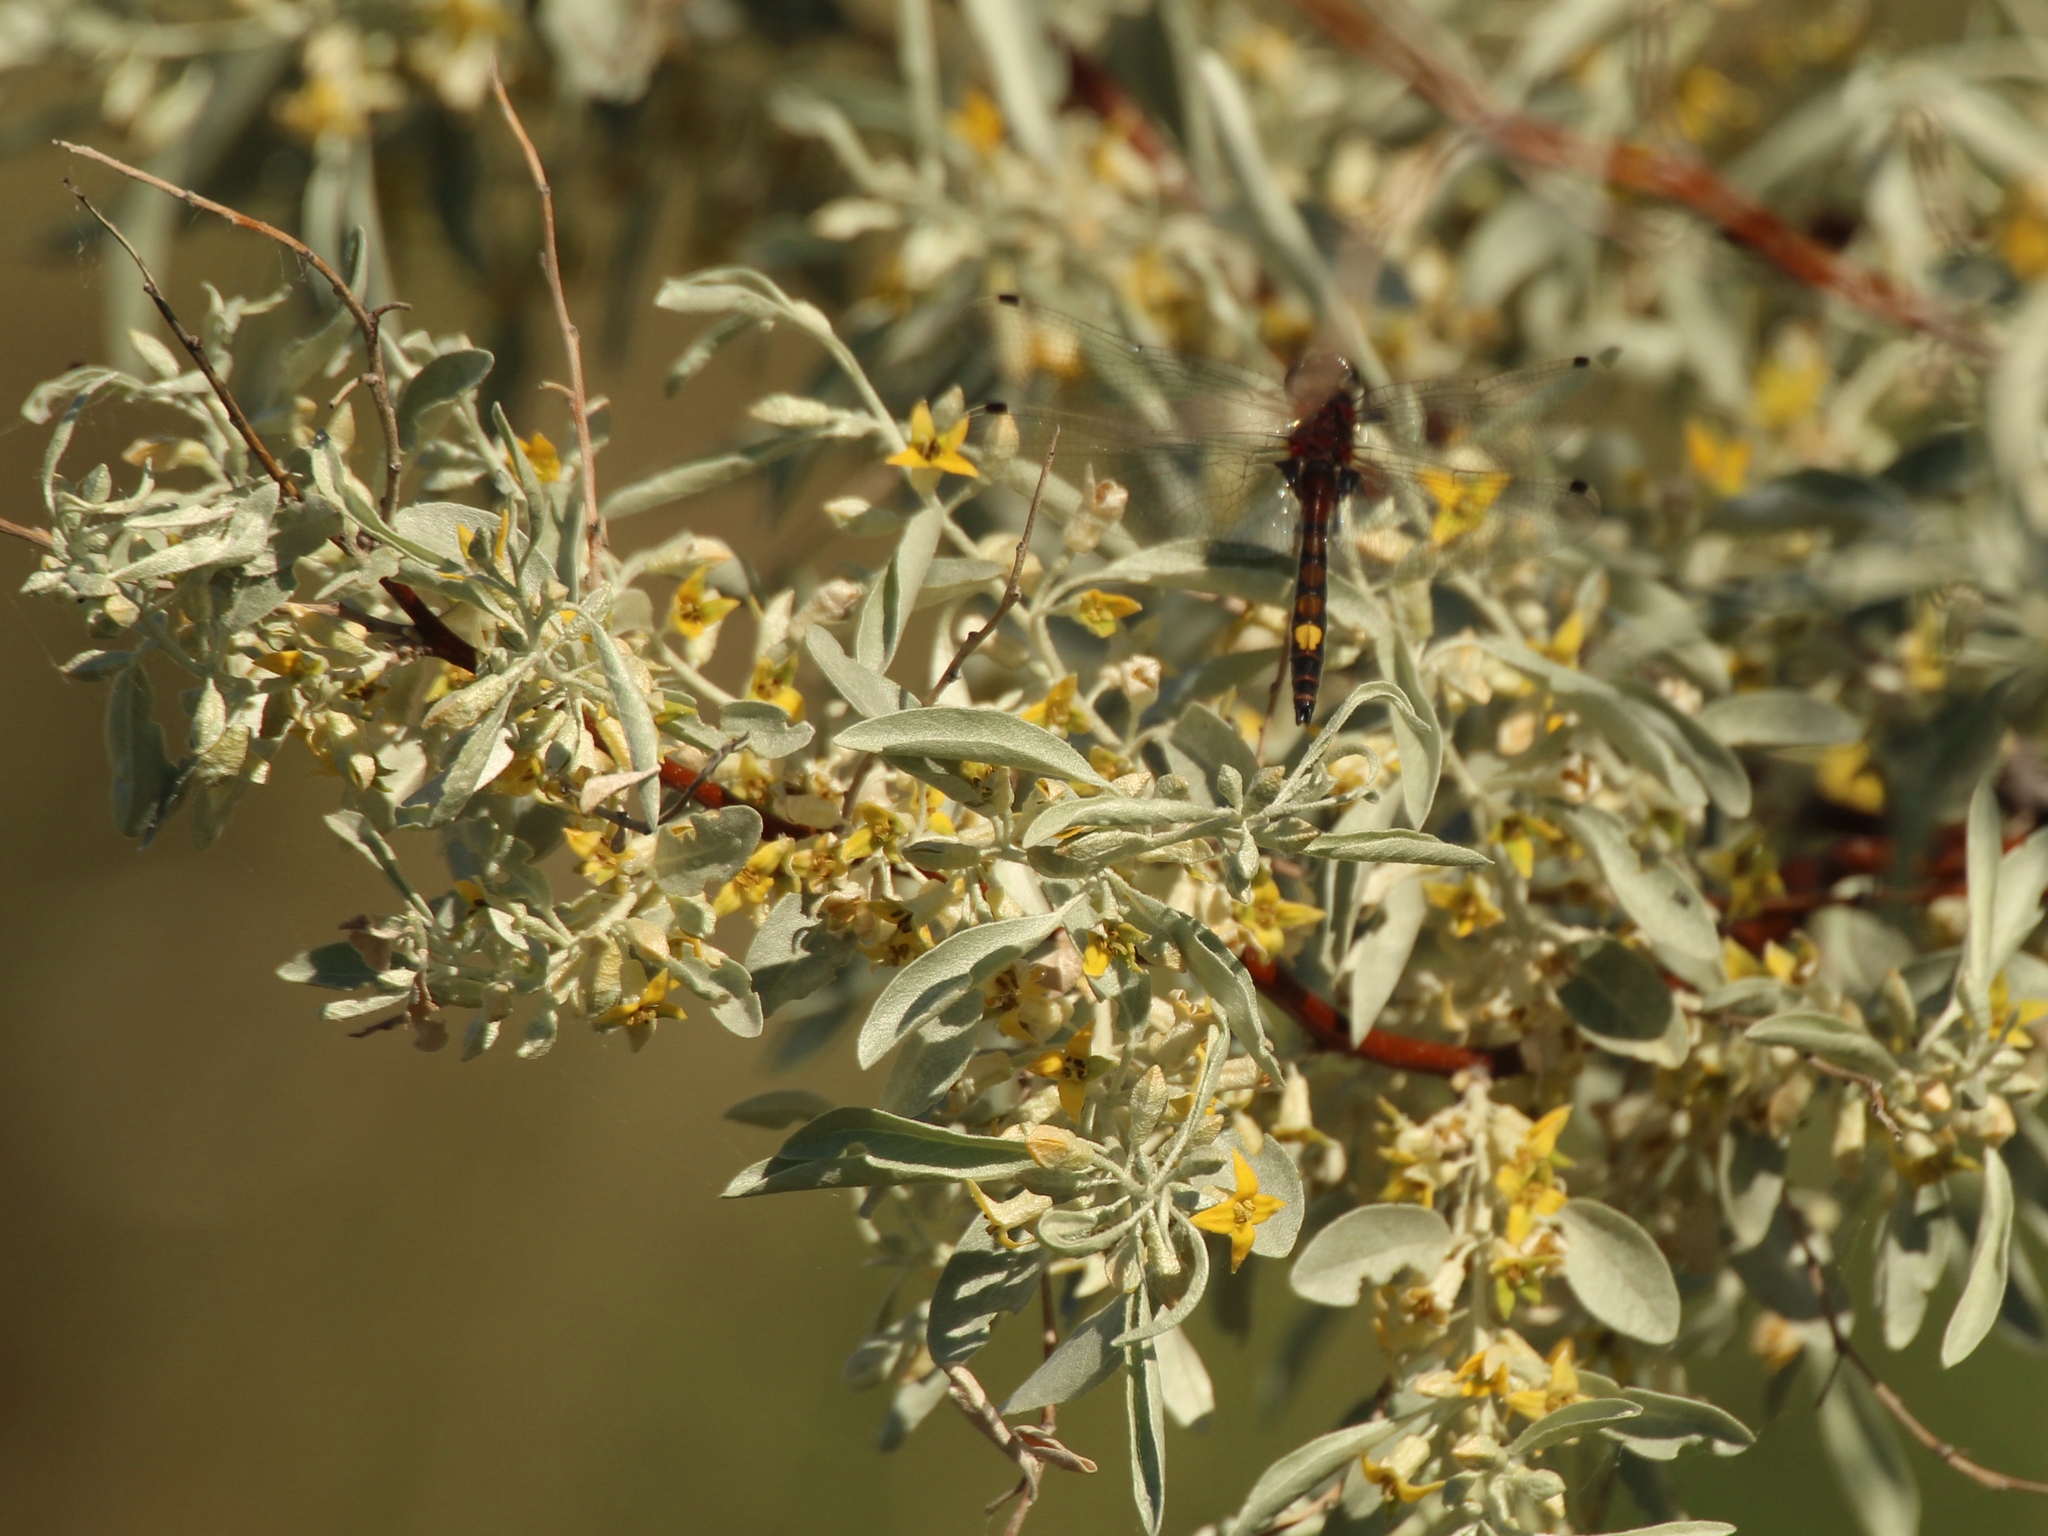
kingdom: Plantae
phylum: Tracheophyta
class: Magnoliopsida
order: Rosales
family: Elaeagnaceae
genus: Elaeagnus
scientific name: Elaeagnus angustifolia
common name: Russian olive
